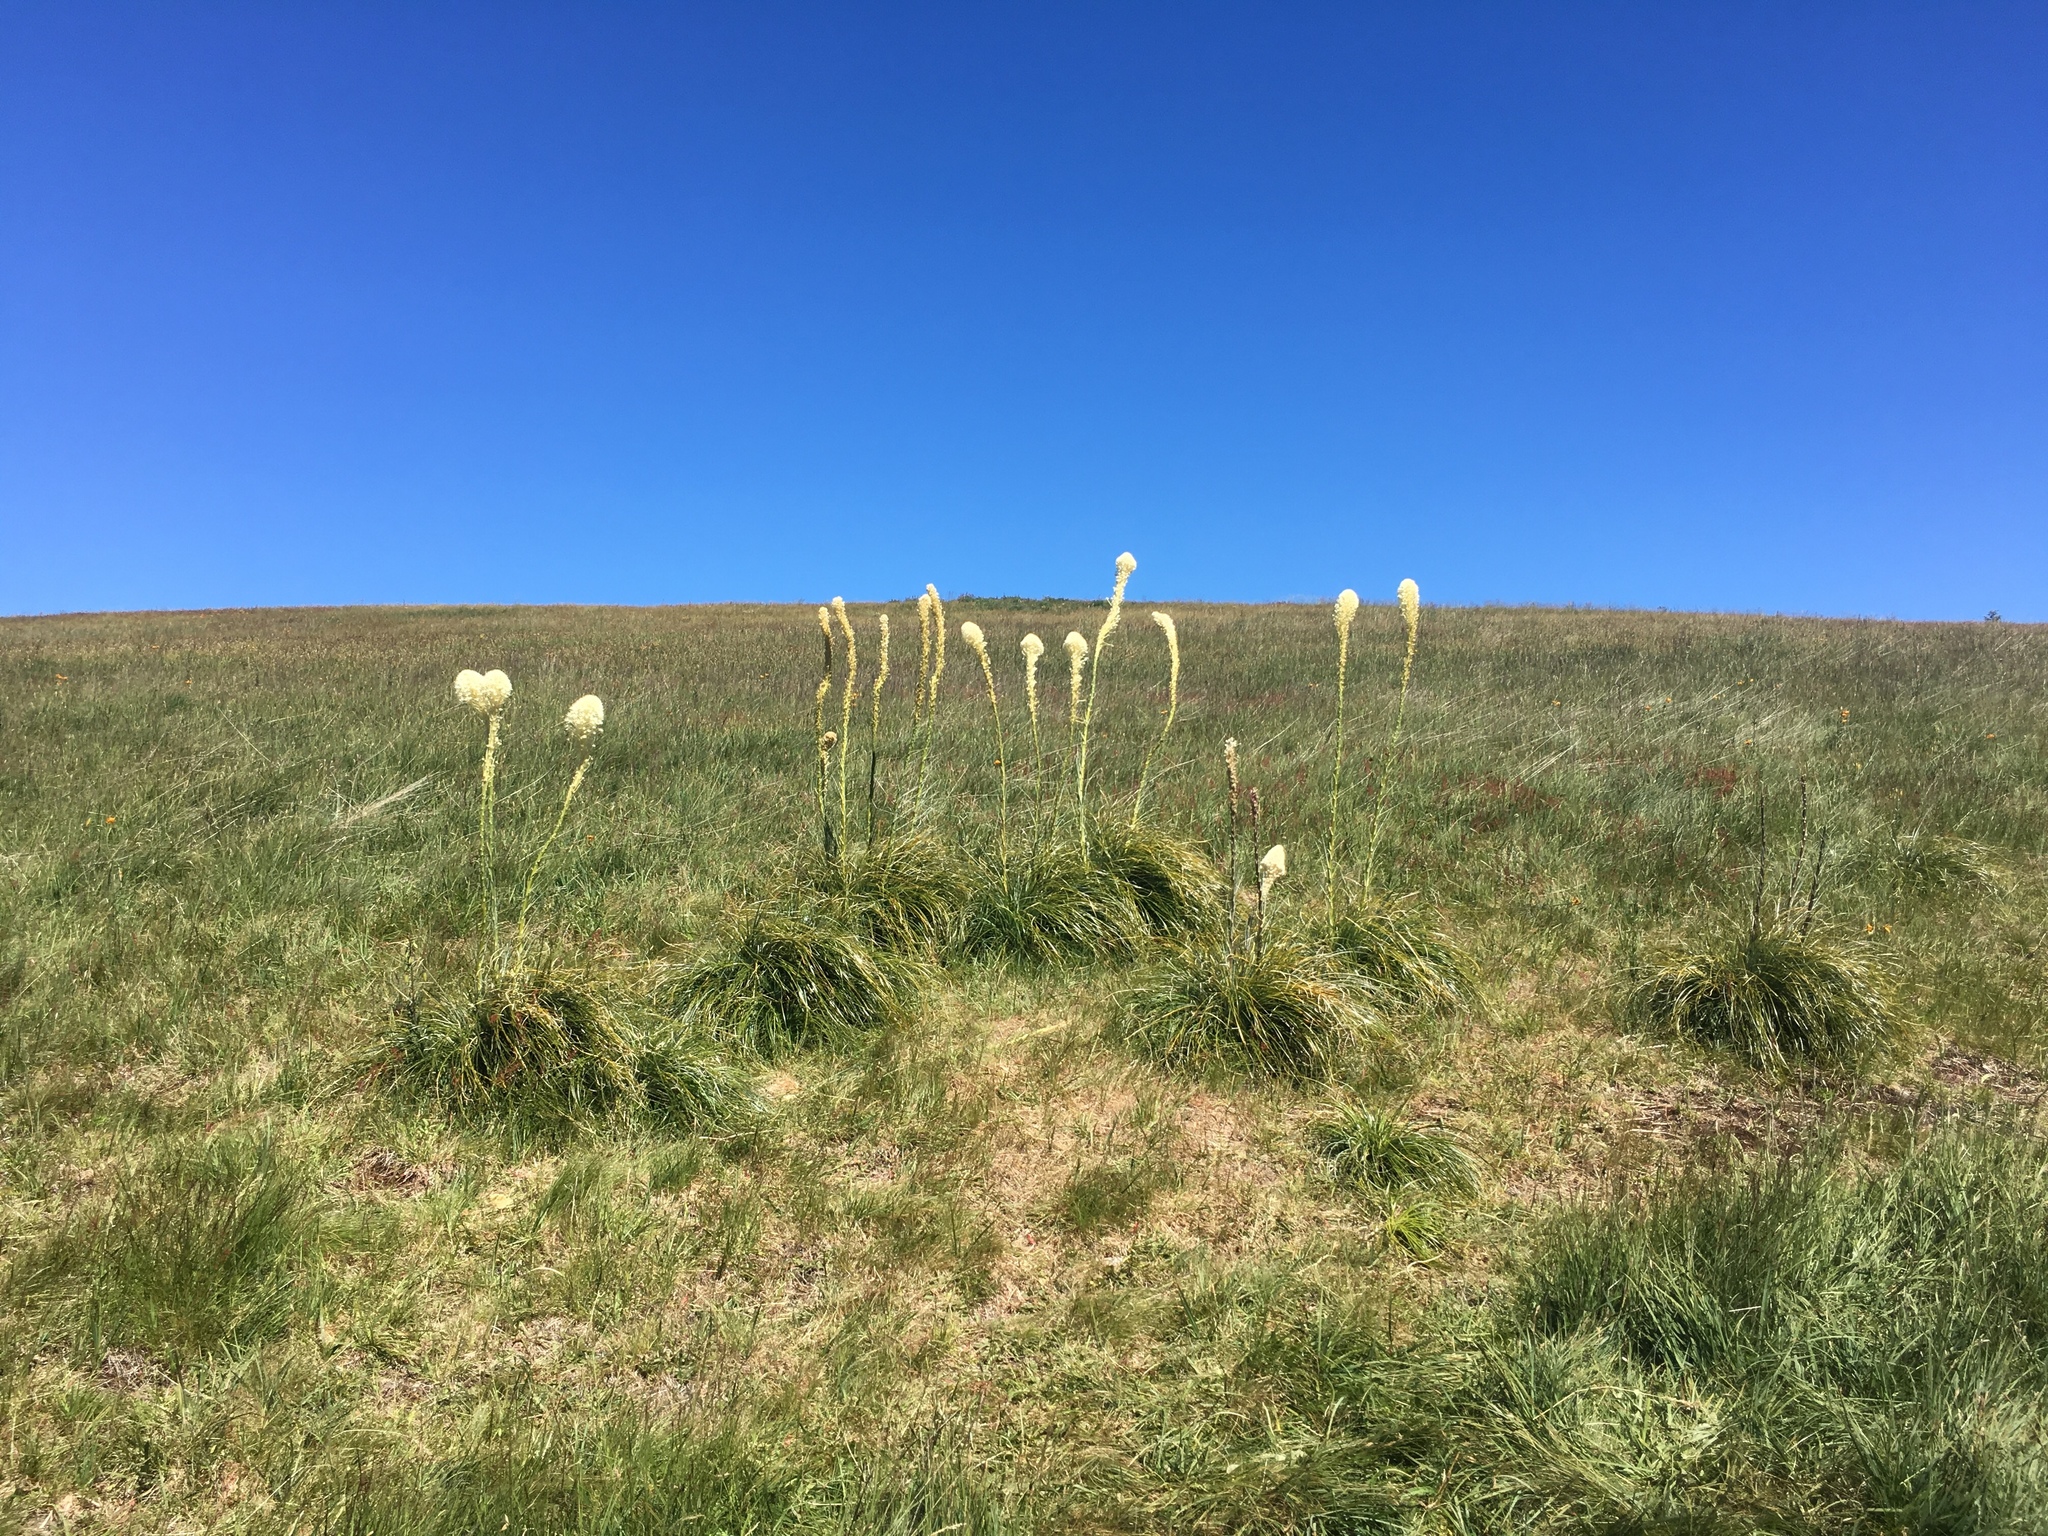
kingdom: Plantae
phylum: Tracheophyta
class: Liliopsida
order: Liliales
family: Melanthiaceae
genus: Xerophyllum
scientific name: Xerophyllum tenax
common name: Bear-grass
